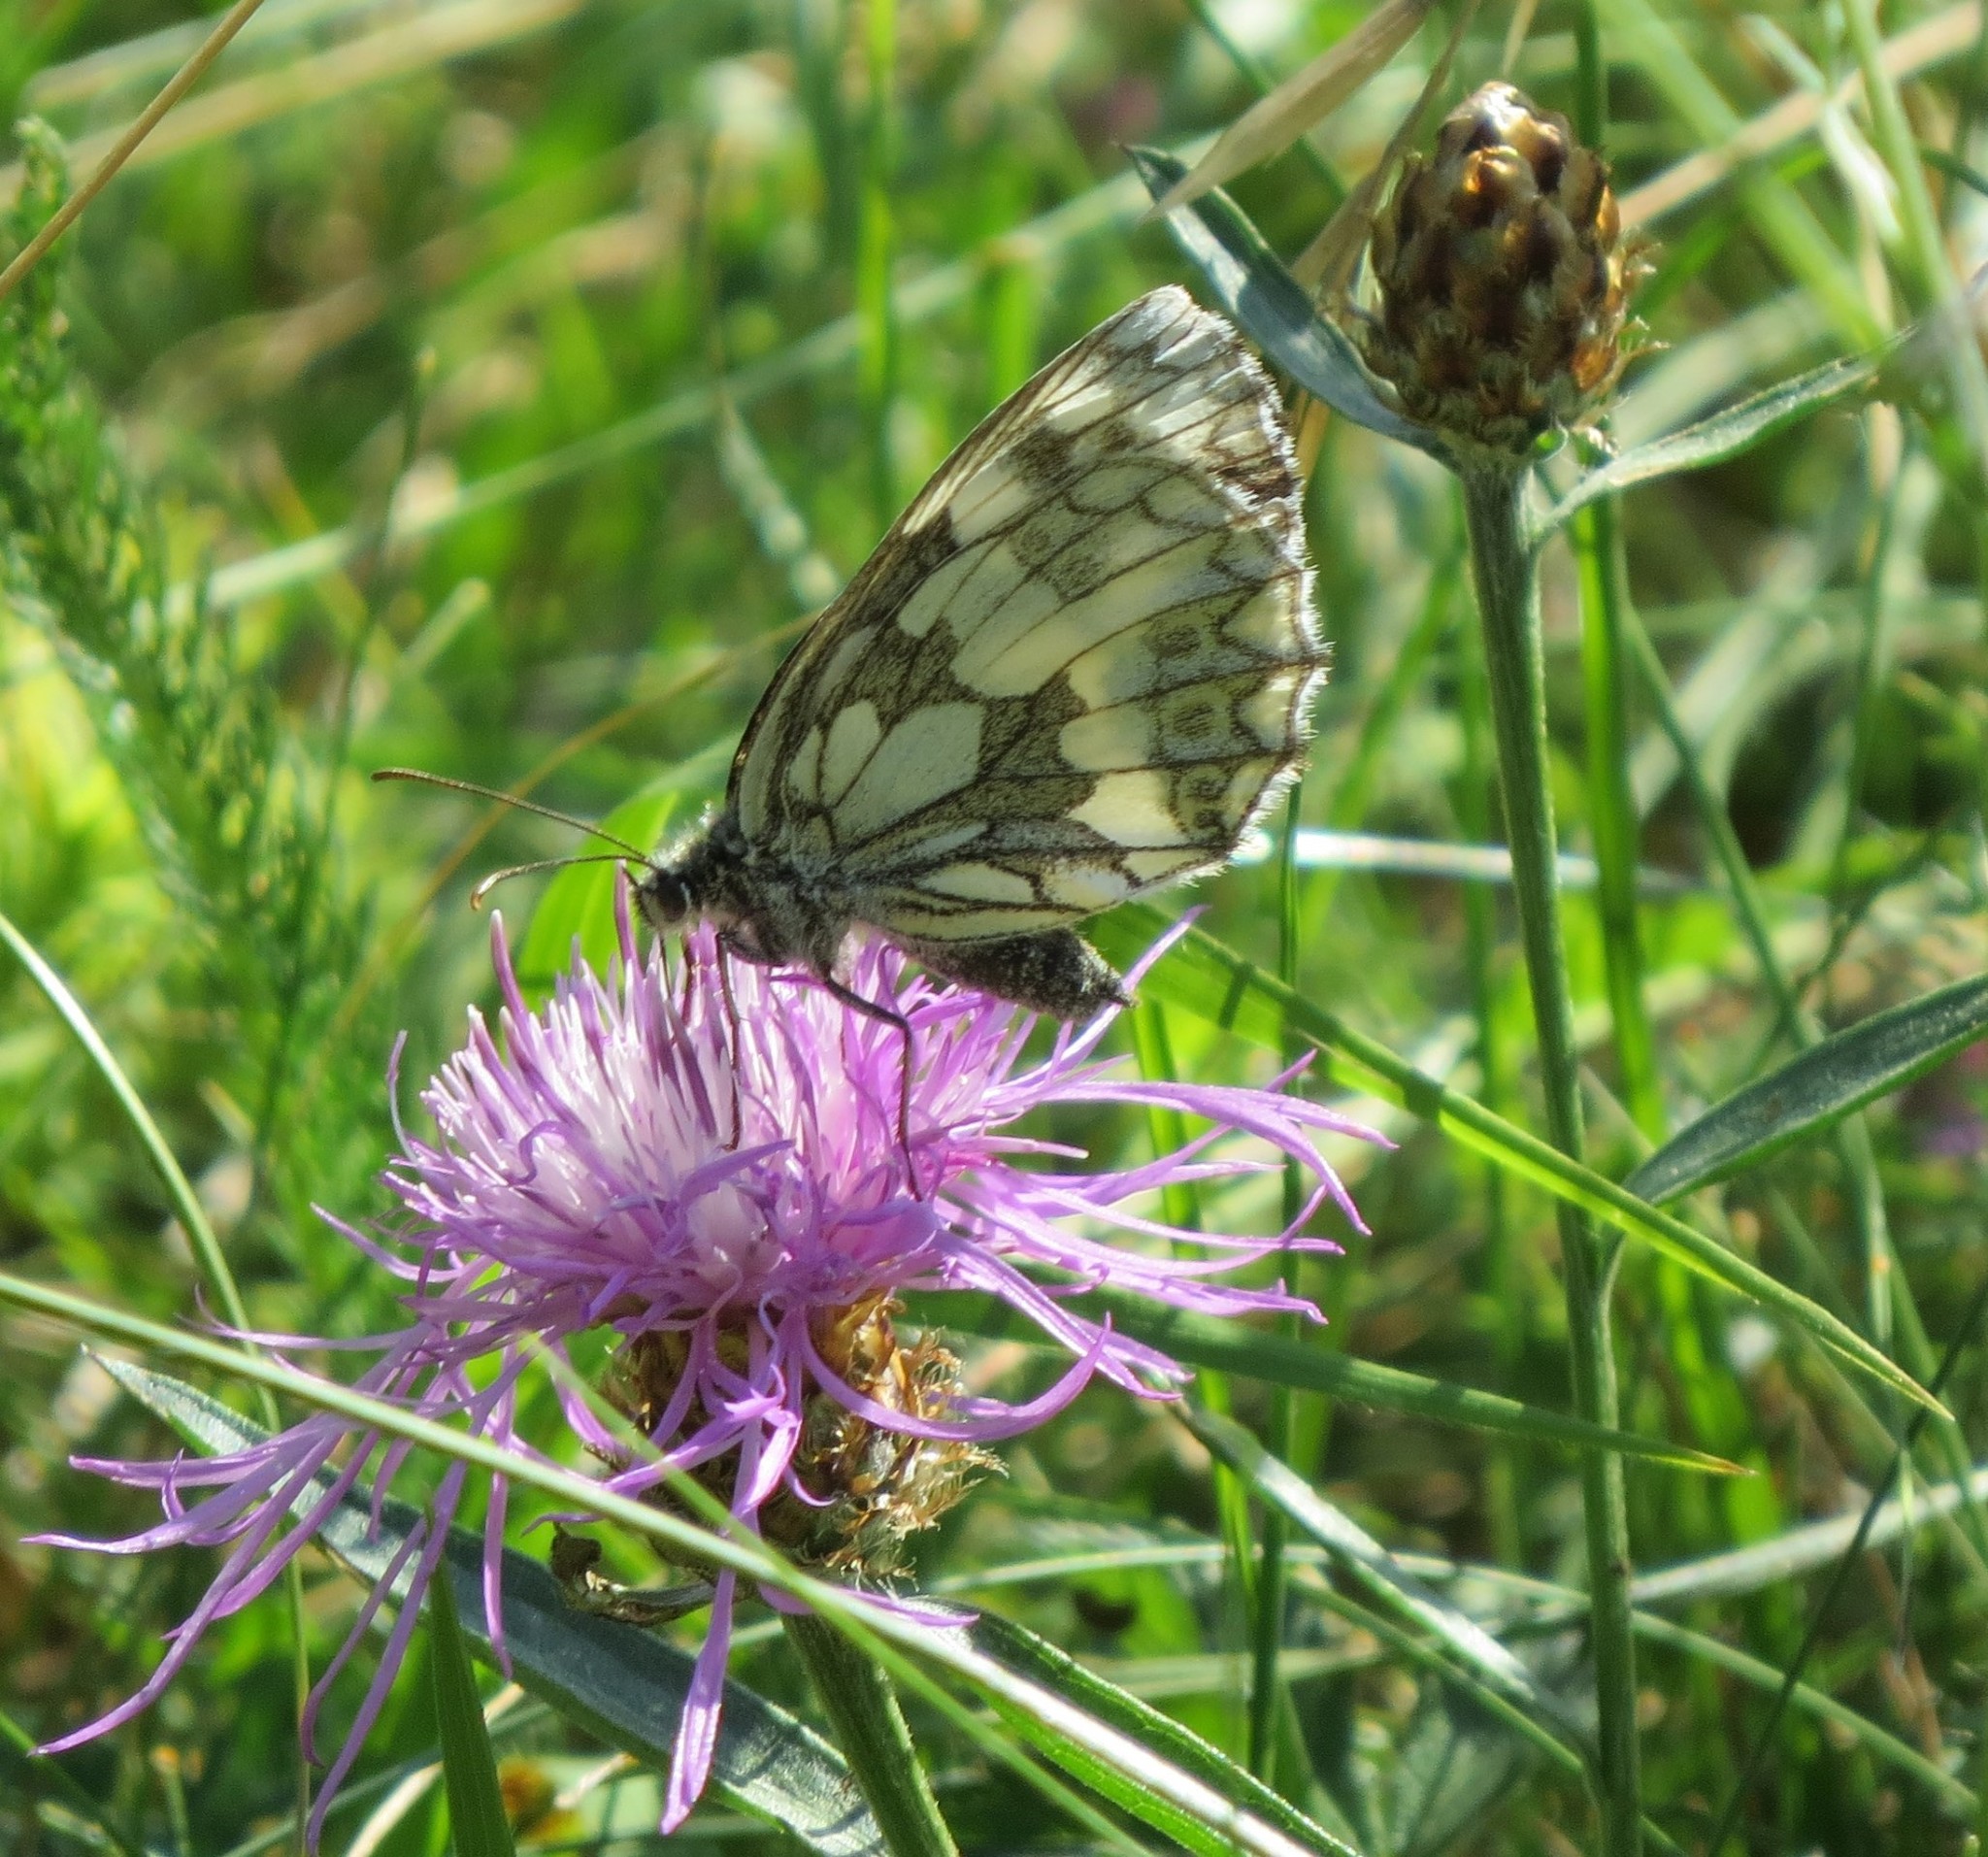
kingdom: Animalia
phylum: Arthropoda
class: Insecta
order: Lepidoptera
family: Nymphalidae
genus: Melanargia
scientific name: Melanargia galathea
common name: Marbled white
